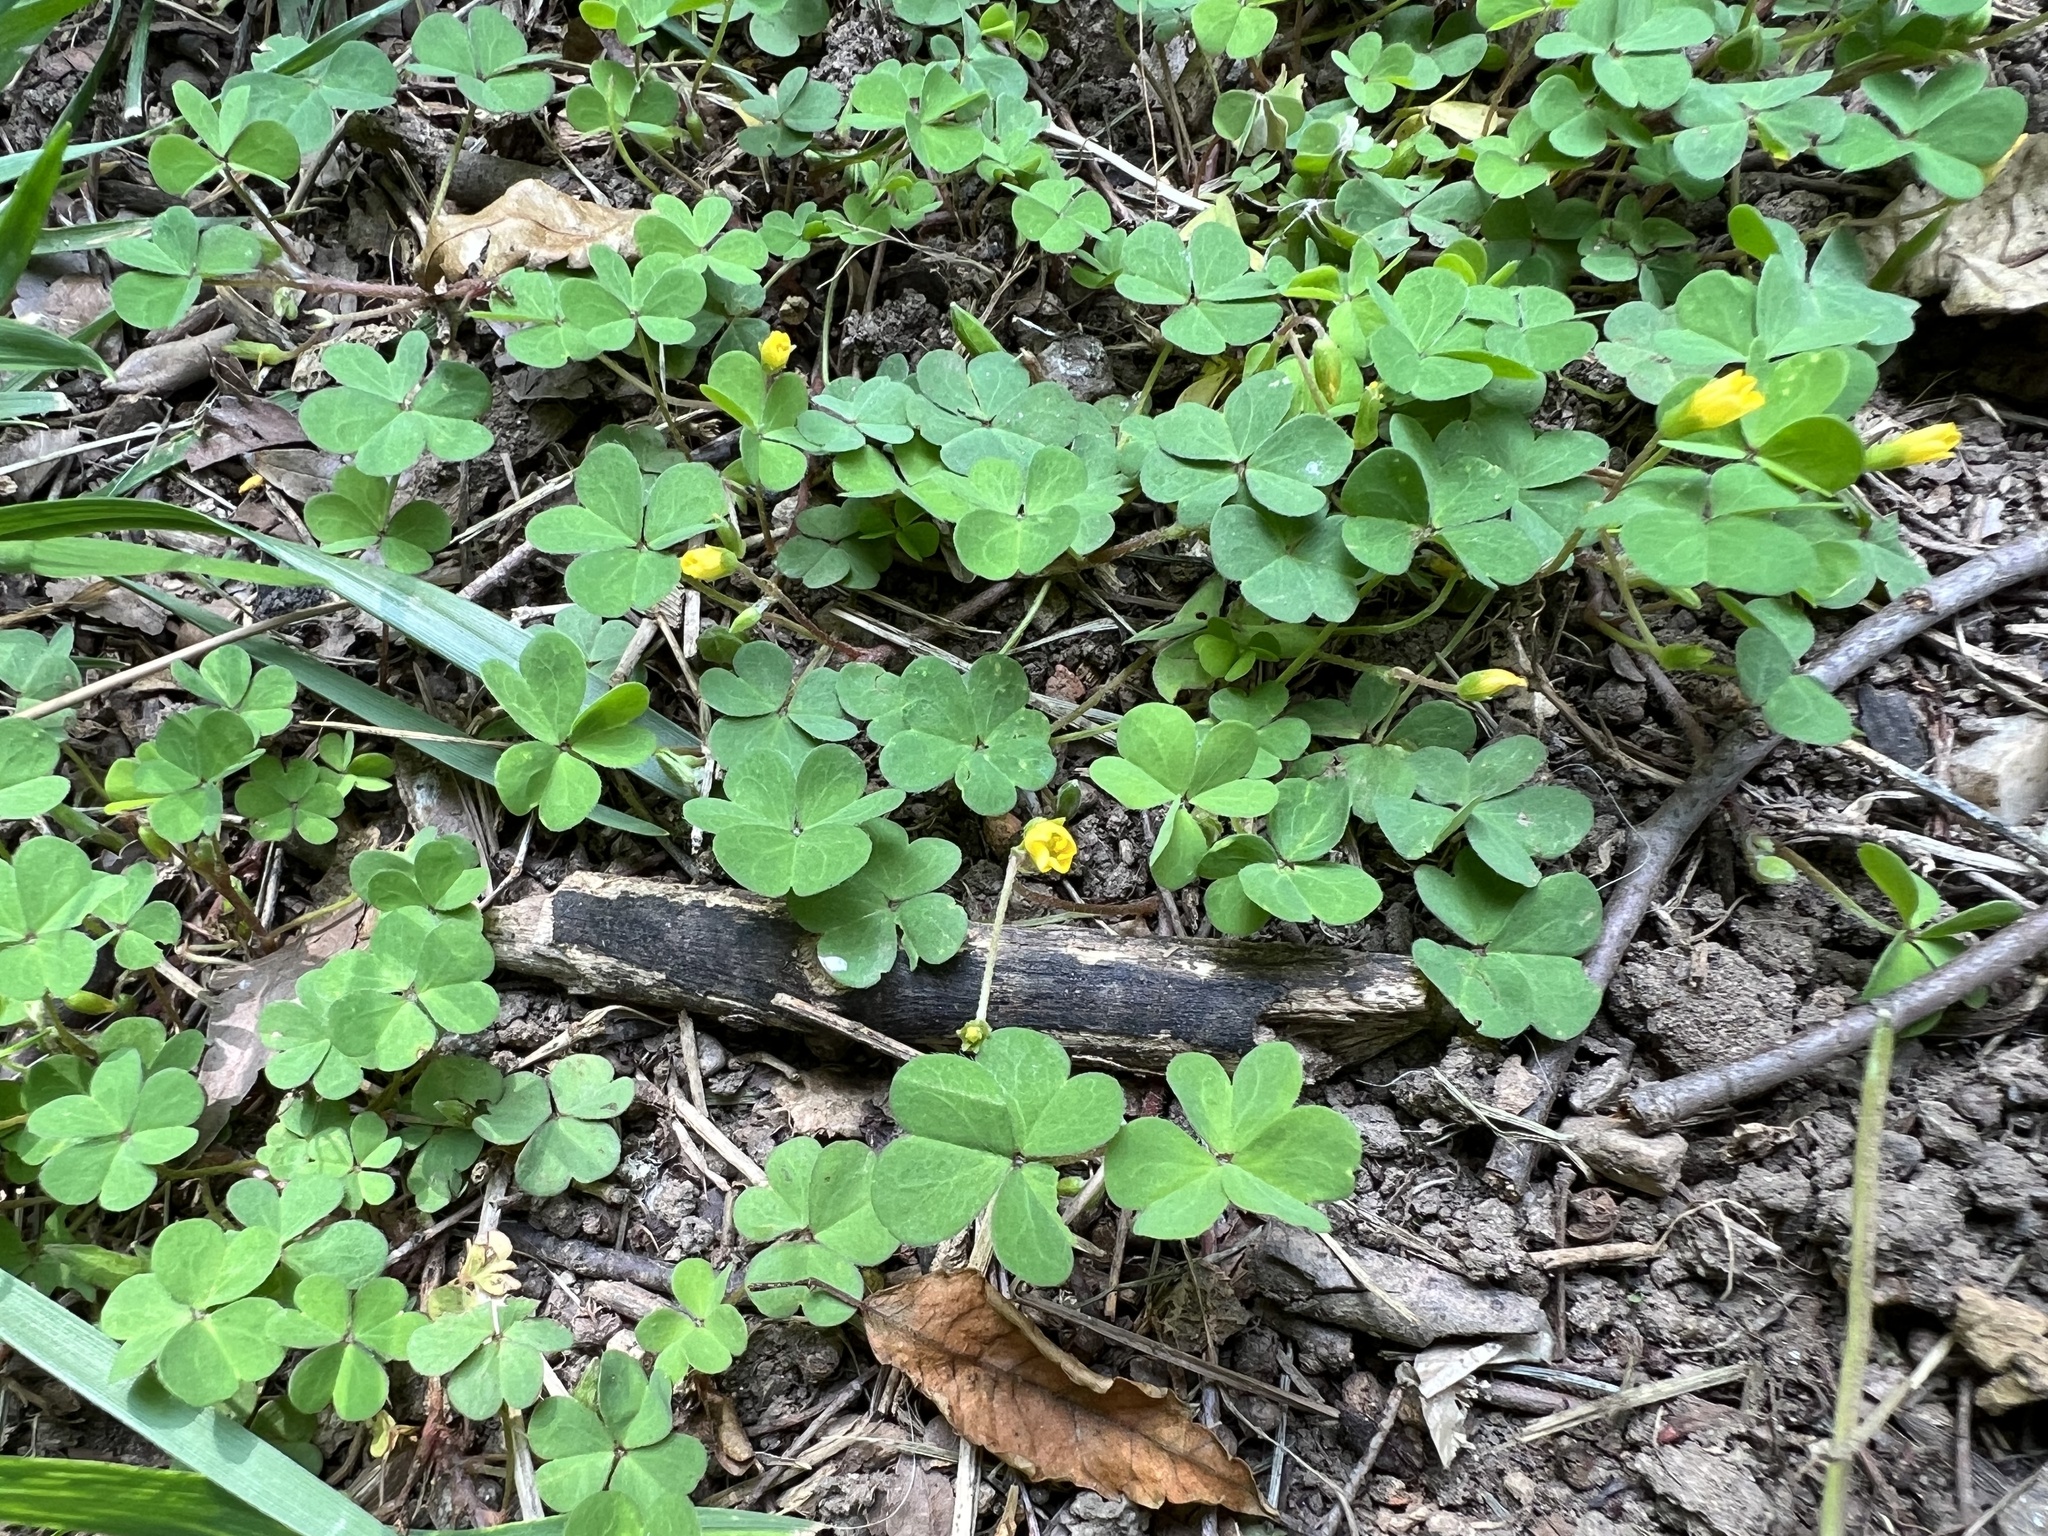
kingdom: Plantae
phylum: Tracheophyta
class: Magnoliopsida
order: Oxalidales
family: Oxalidaceae
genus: Oxalis
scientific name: Oxalis corniculata
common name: Procumbent yellow-sorrel
